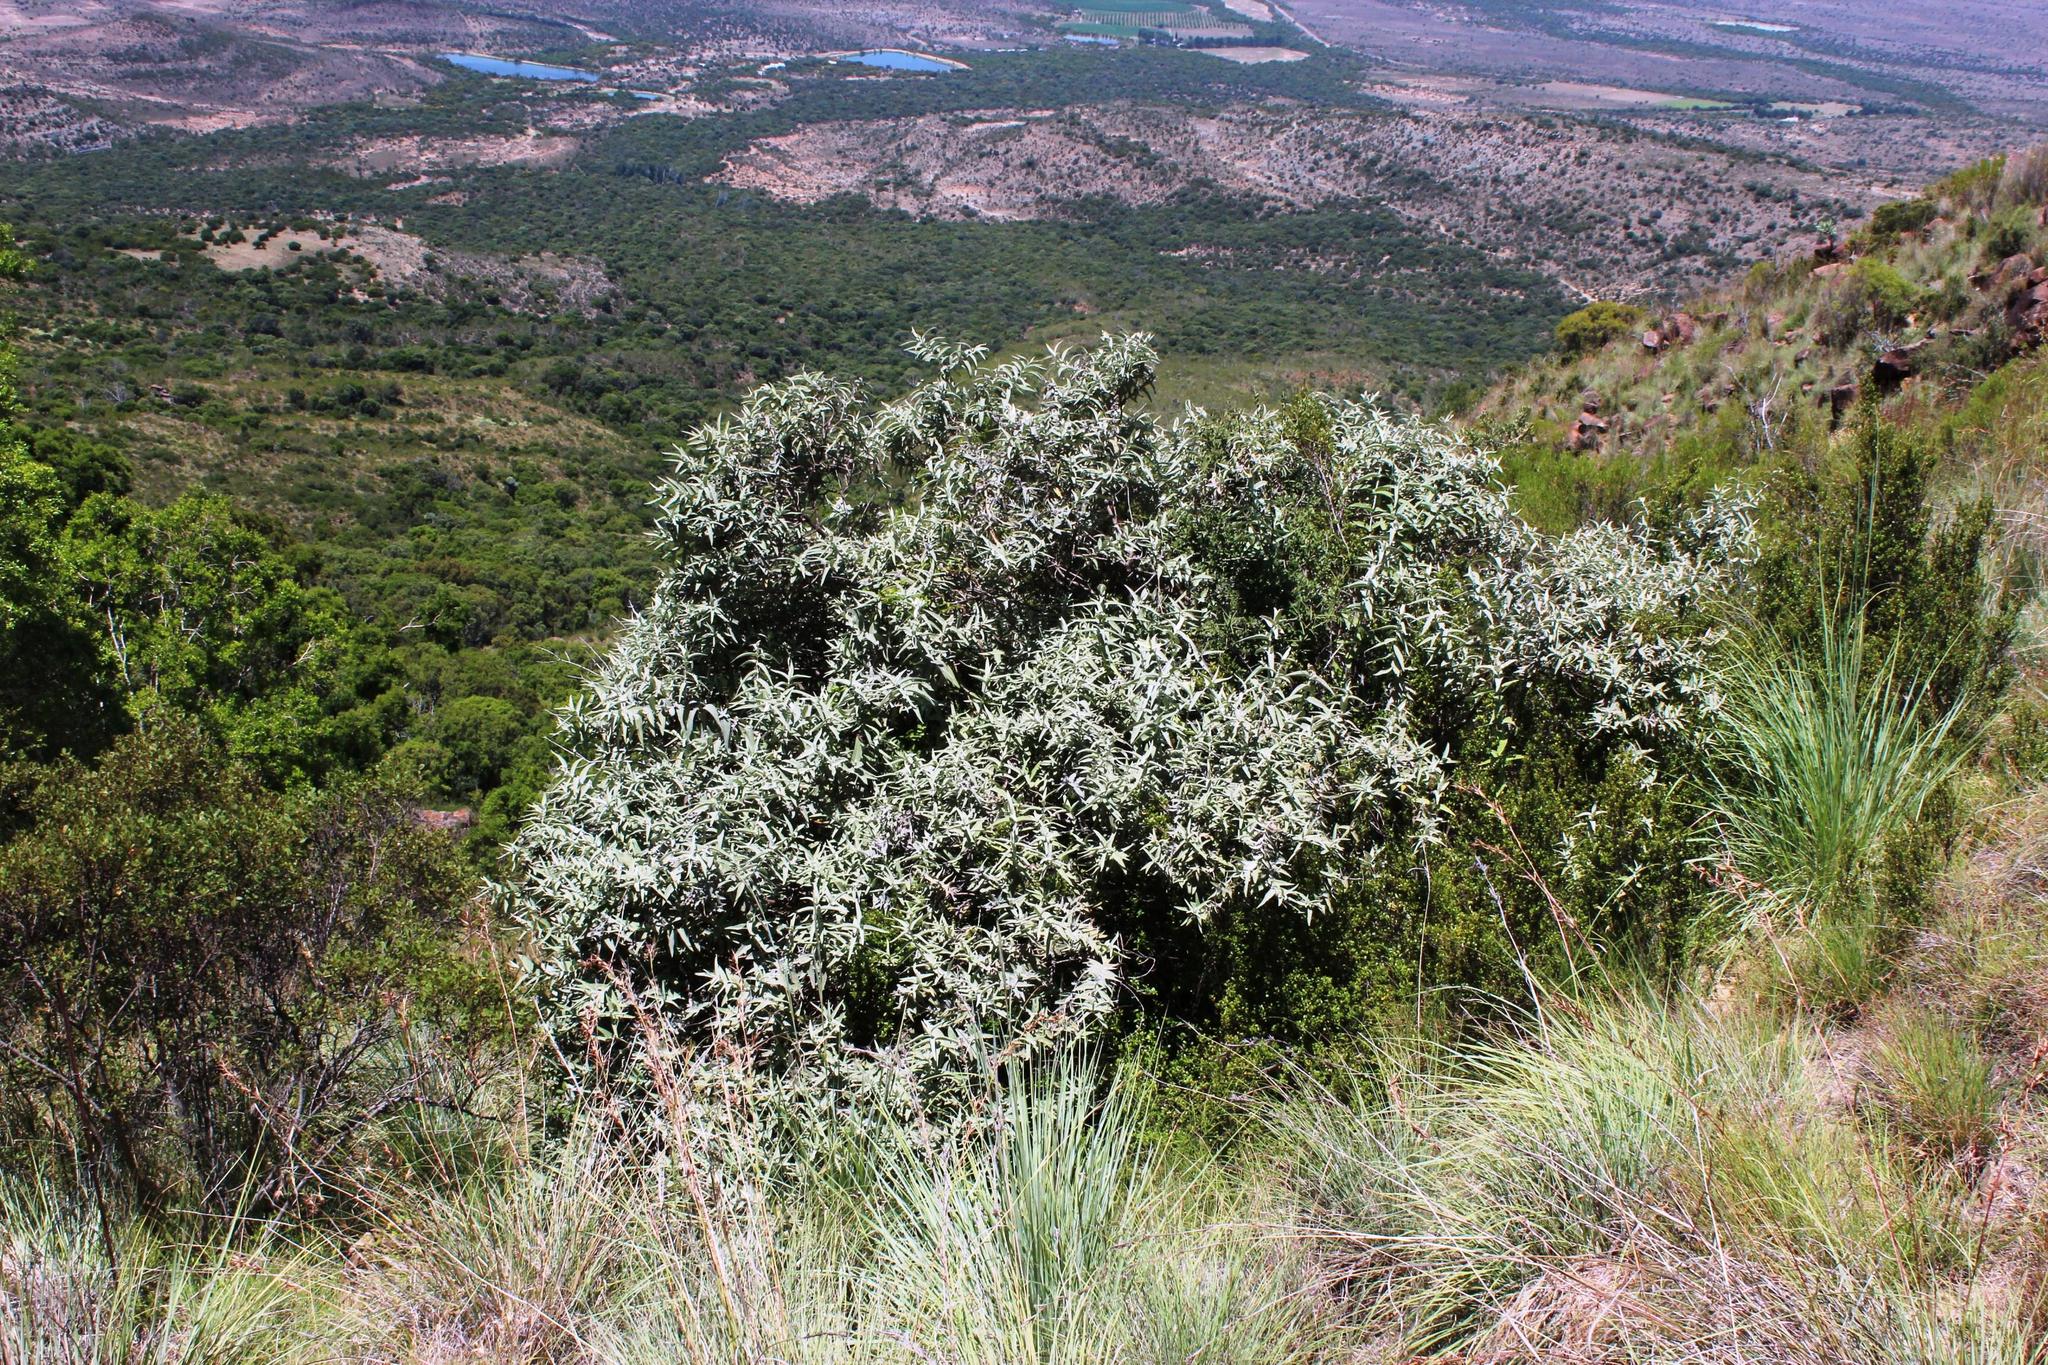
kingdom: Plantae
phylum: Tracheophyta
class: Magnoliopsida
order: Lamiales
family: Scrophulariaceae
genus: Buddleja
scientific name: Buddleja salviifolia
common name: Sagewood
